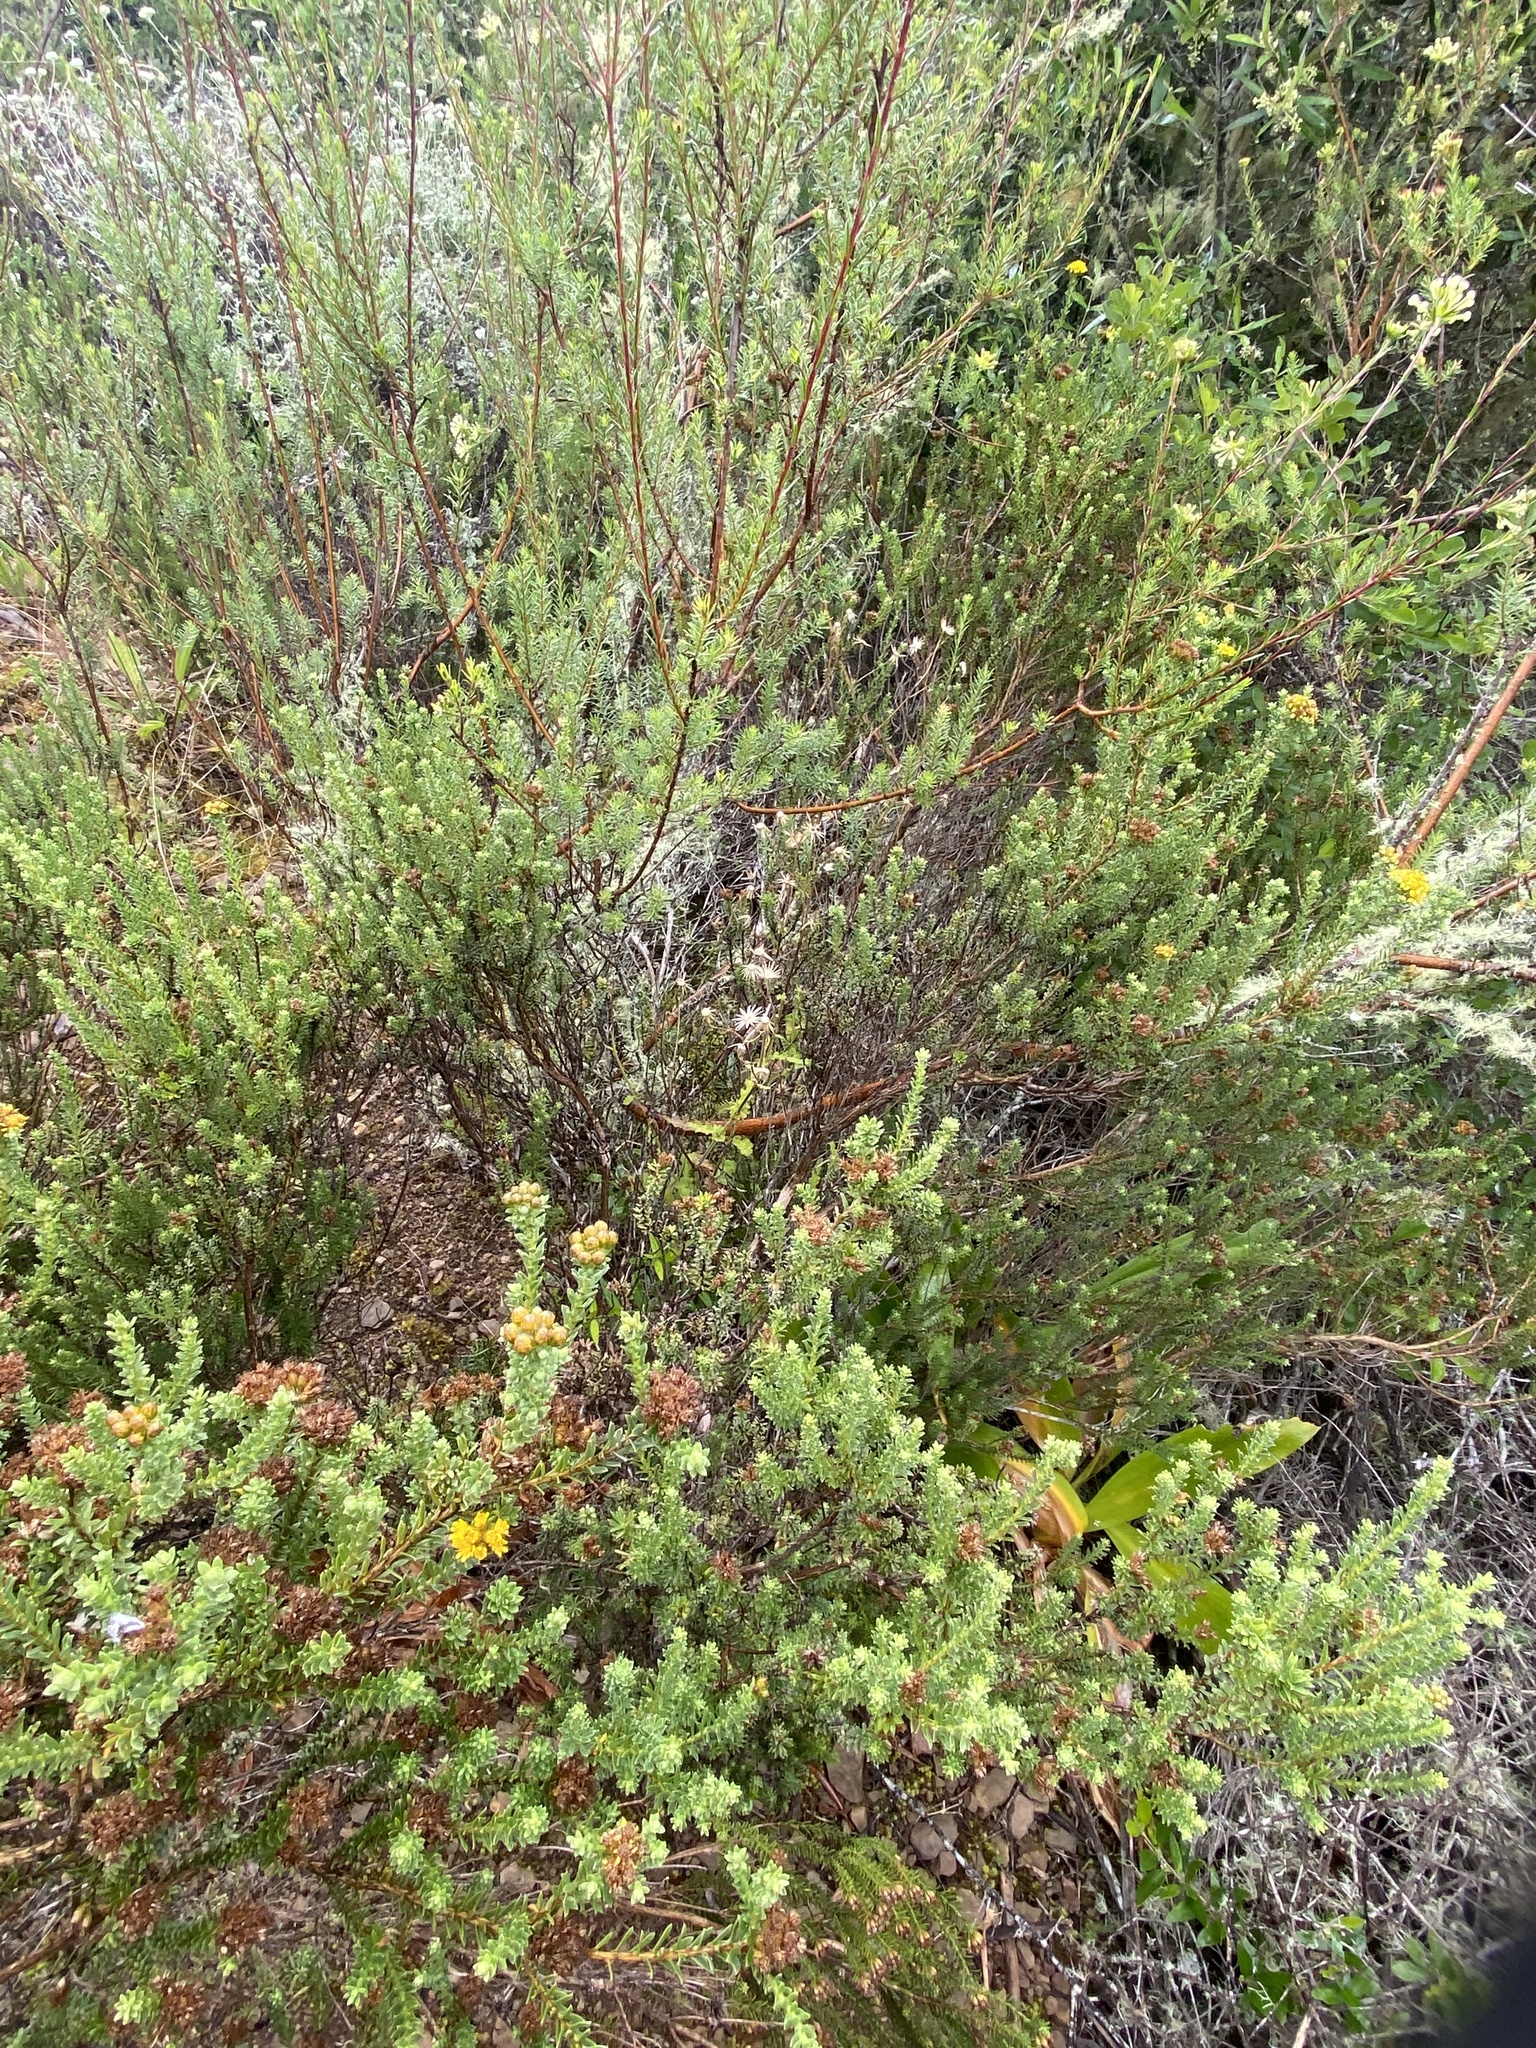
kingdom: Plantae
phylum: Tracheophyta
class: Magnoliopsida
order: Asterales
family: Asteraceae
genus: Oedera
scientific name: Oedera genistifolia
